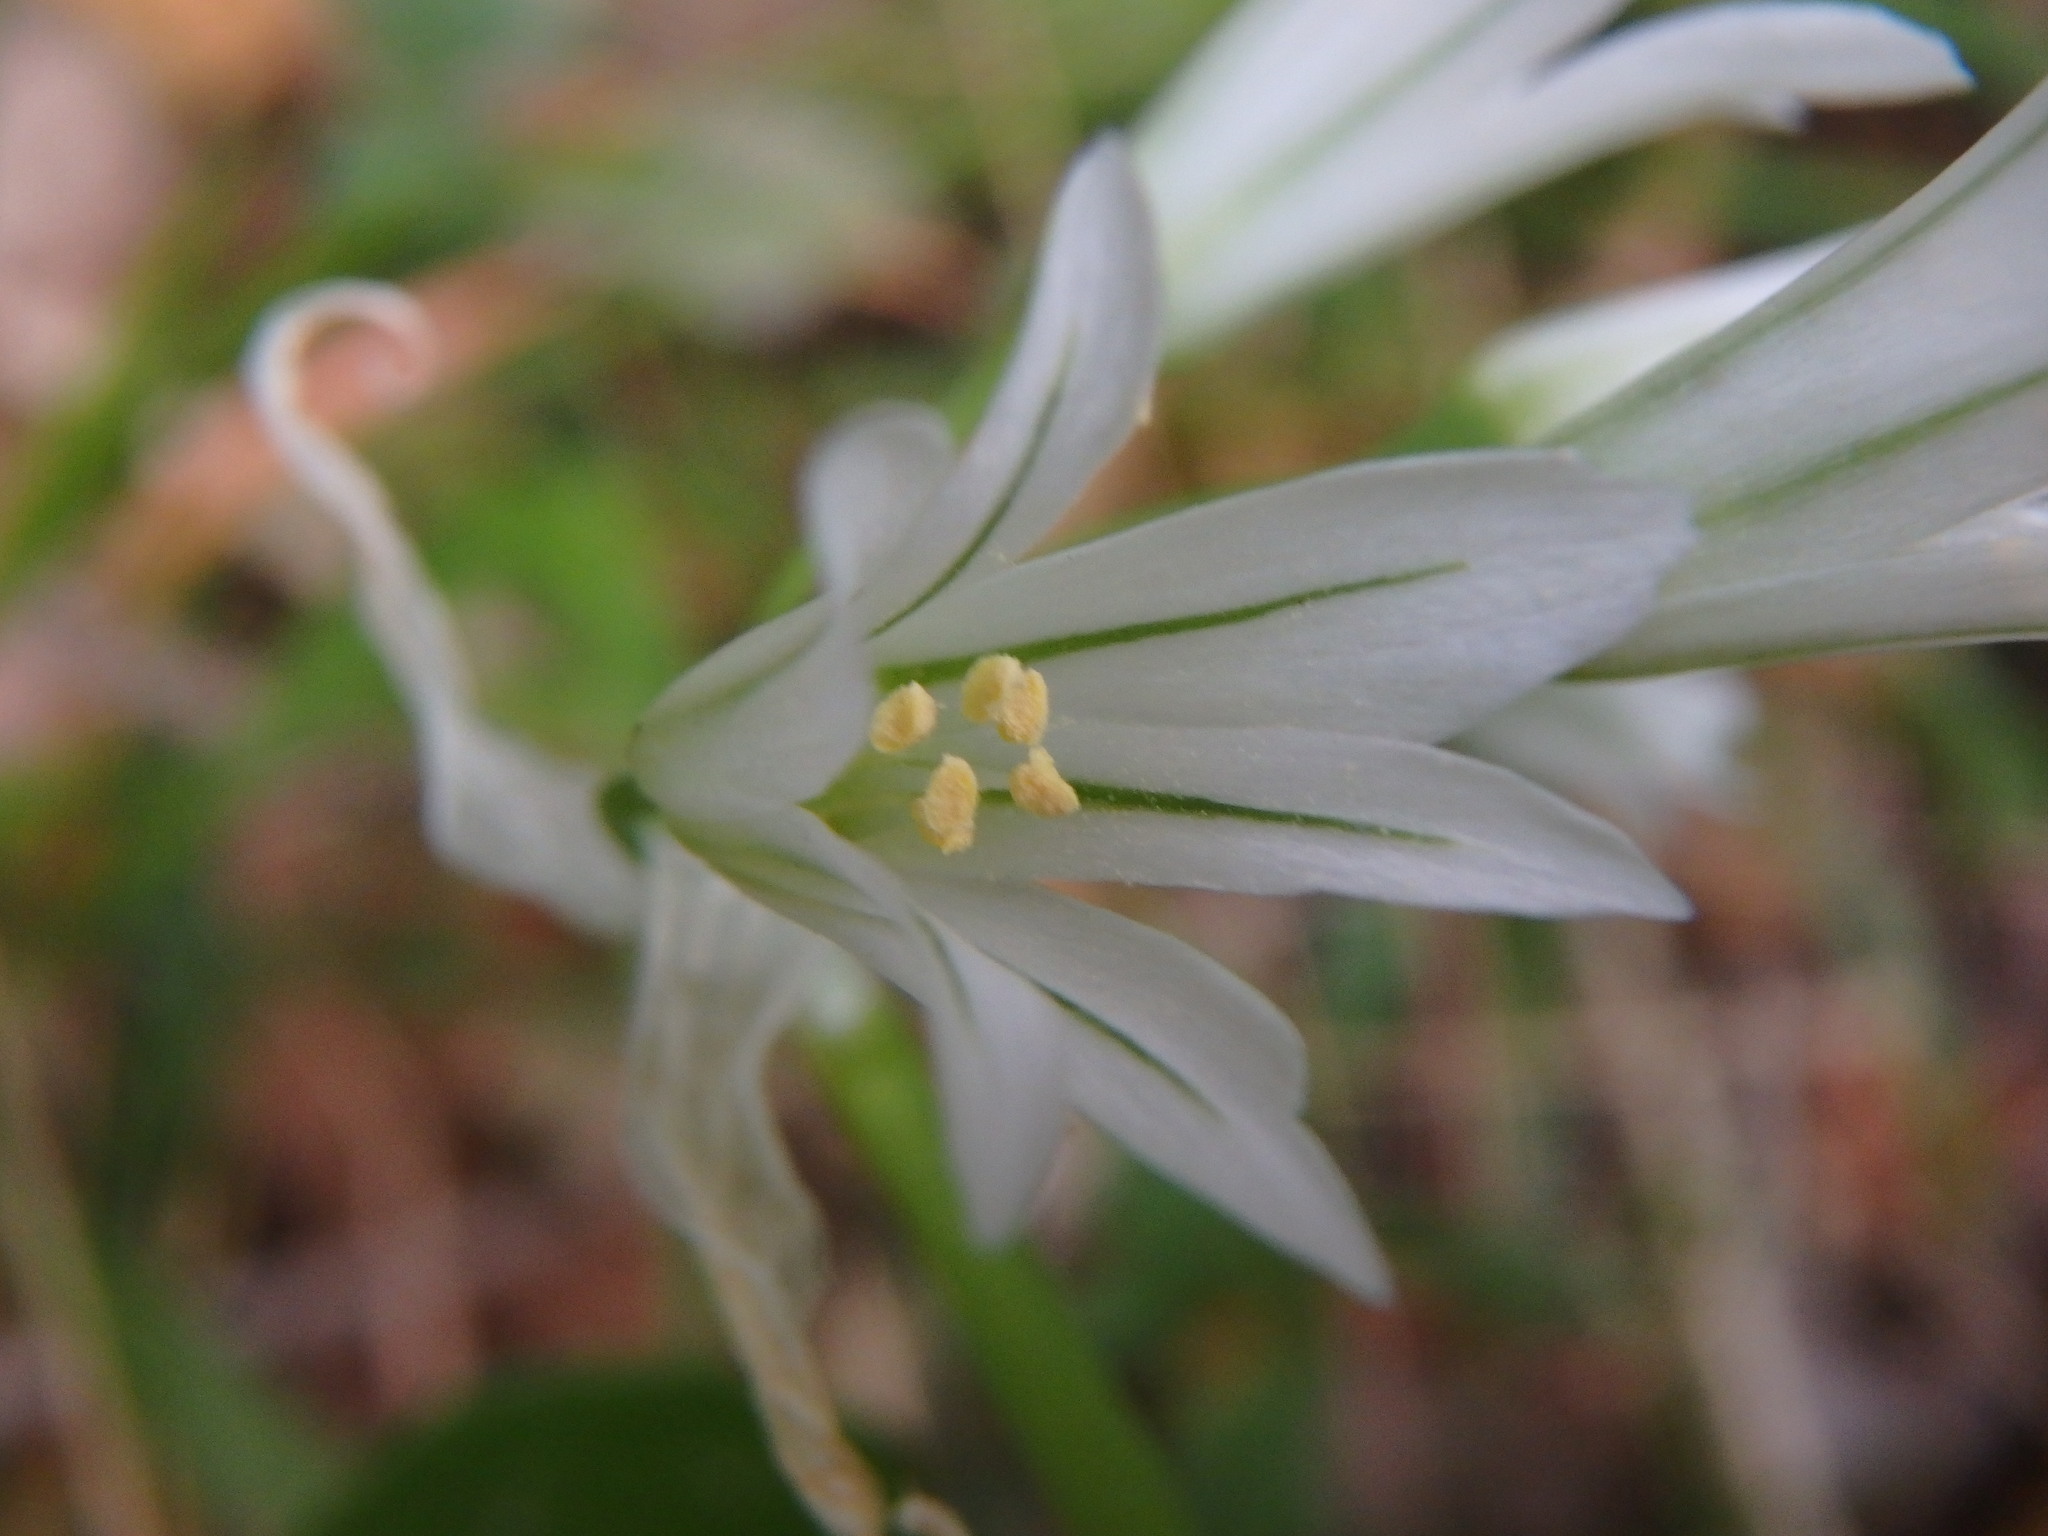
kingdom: Plantae
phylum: Tracheophyta
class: Liliopsida
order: Asparagales
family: Amaryllidaceae
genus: Allium
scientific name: Allium triquetrum
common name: Three-cornered garlic
